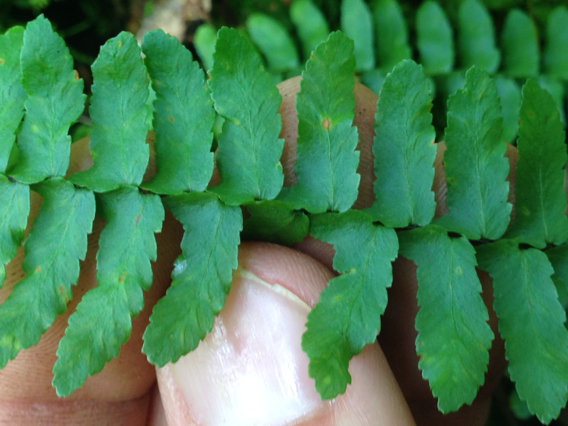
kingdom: Plantae
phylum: Tracheophyta
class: Polypodiopsida
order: Polypodiales
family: Aspleniaceae
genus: Asplenium
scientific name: Asplenium platyneuron
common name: Ebony spleenwort
